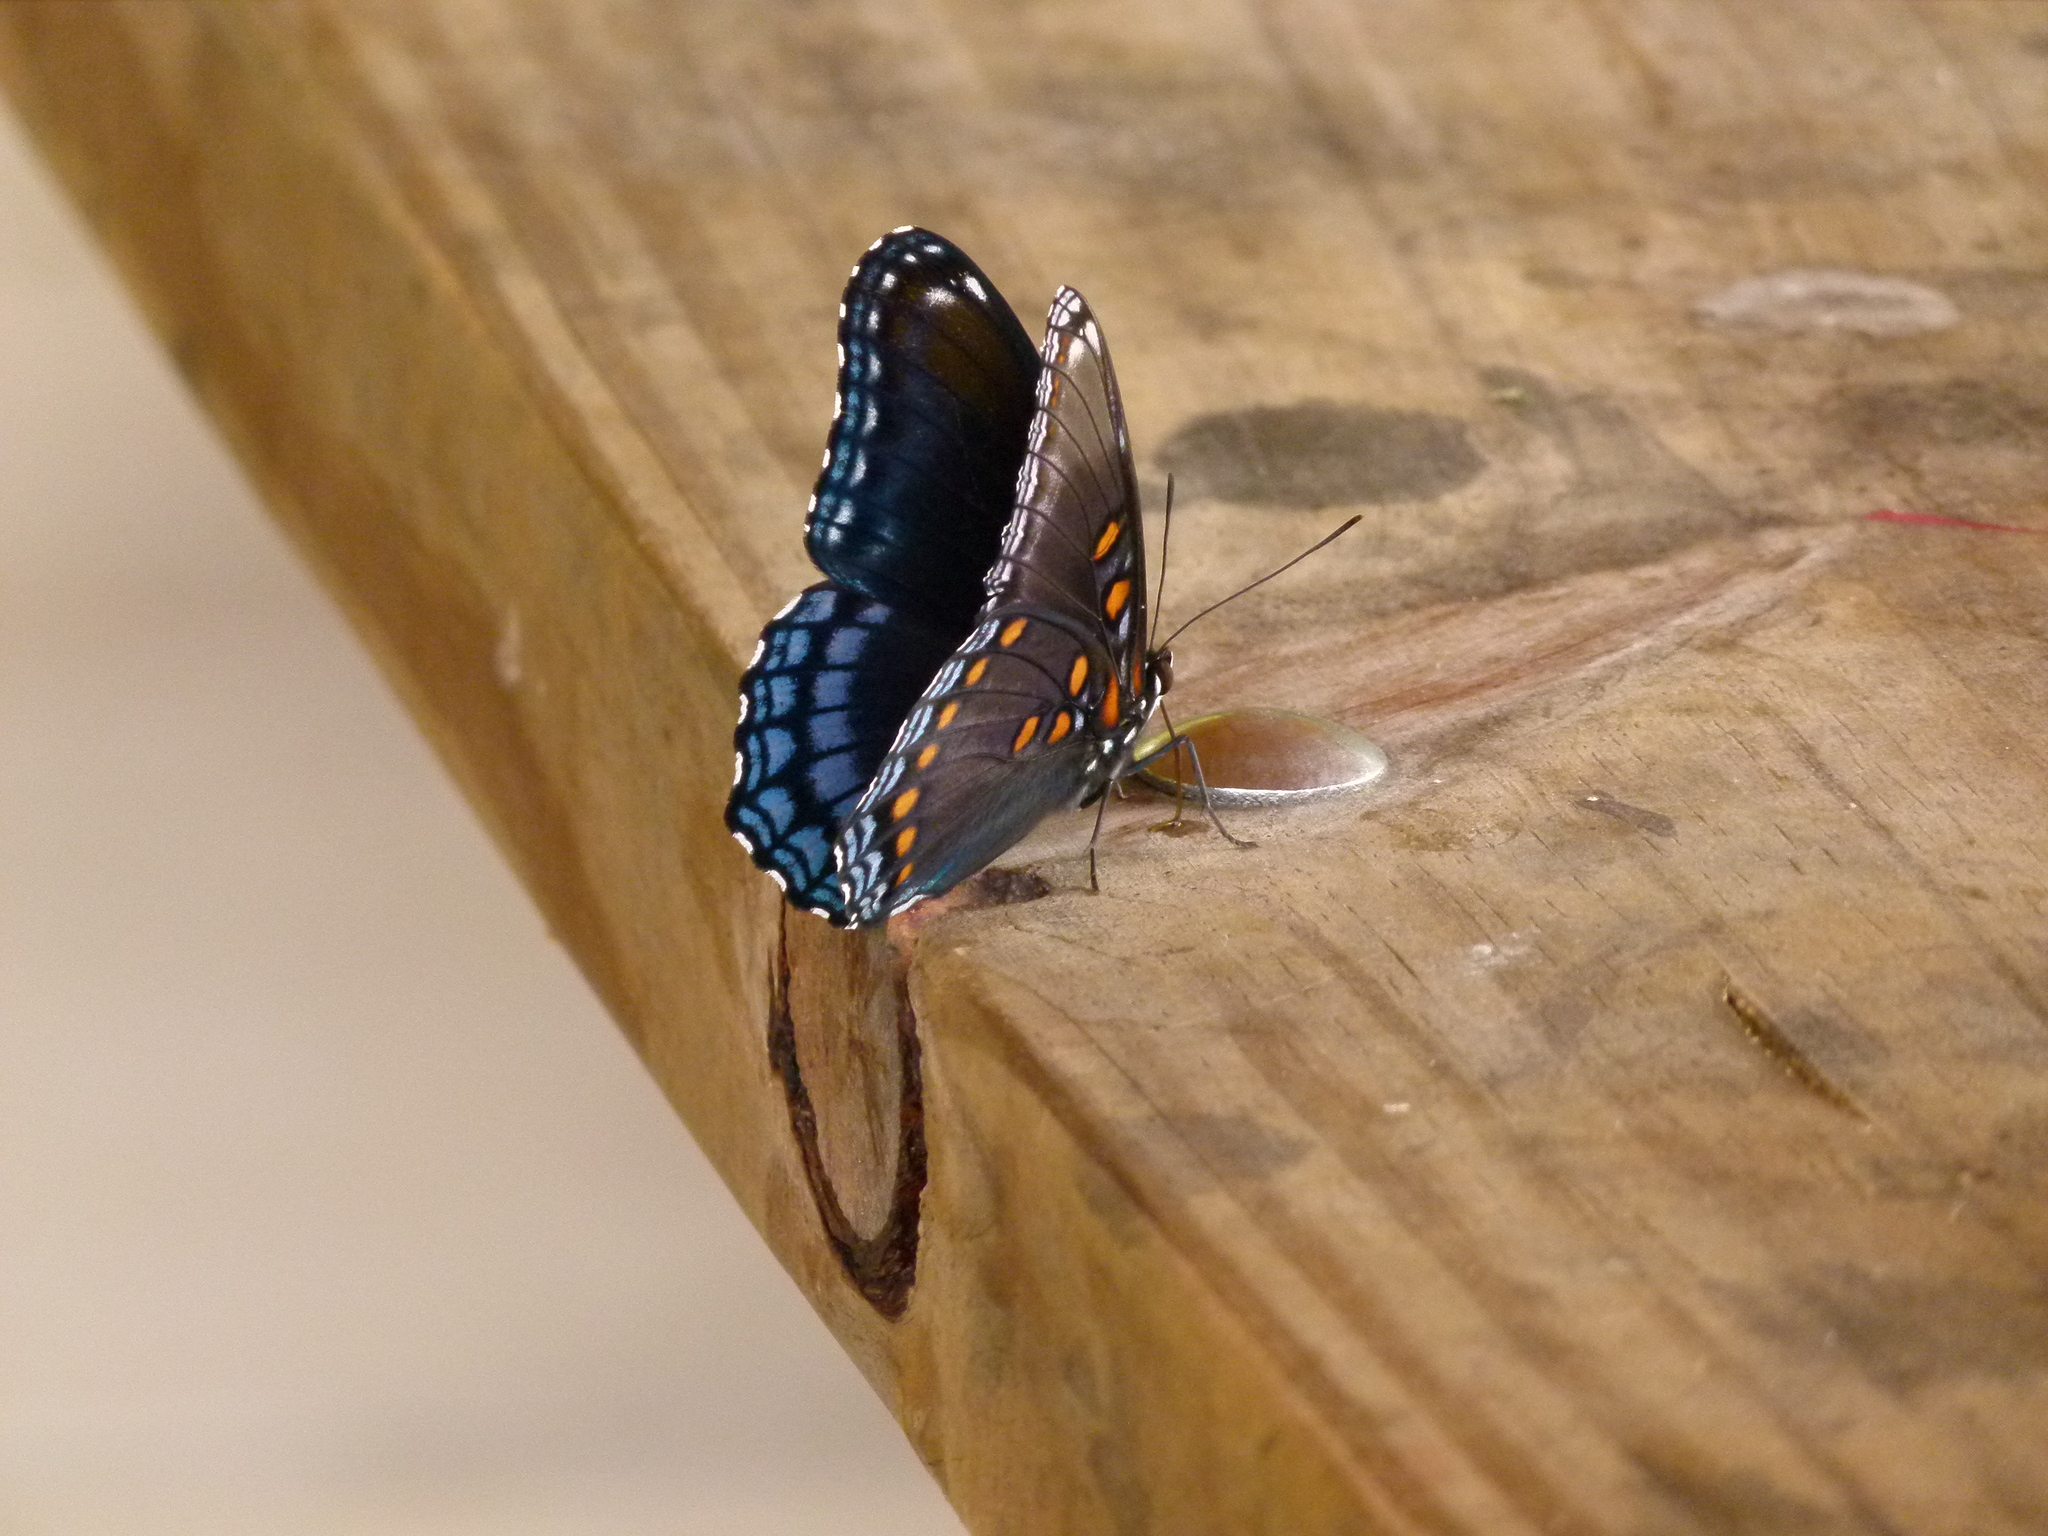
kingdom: Animalia
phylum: Arthropoda
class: Insecta
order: Lepidoptera
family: Nymphalidae
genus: Limenitis
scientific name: Limenitis astyanax
